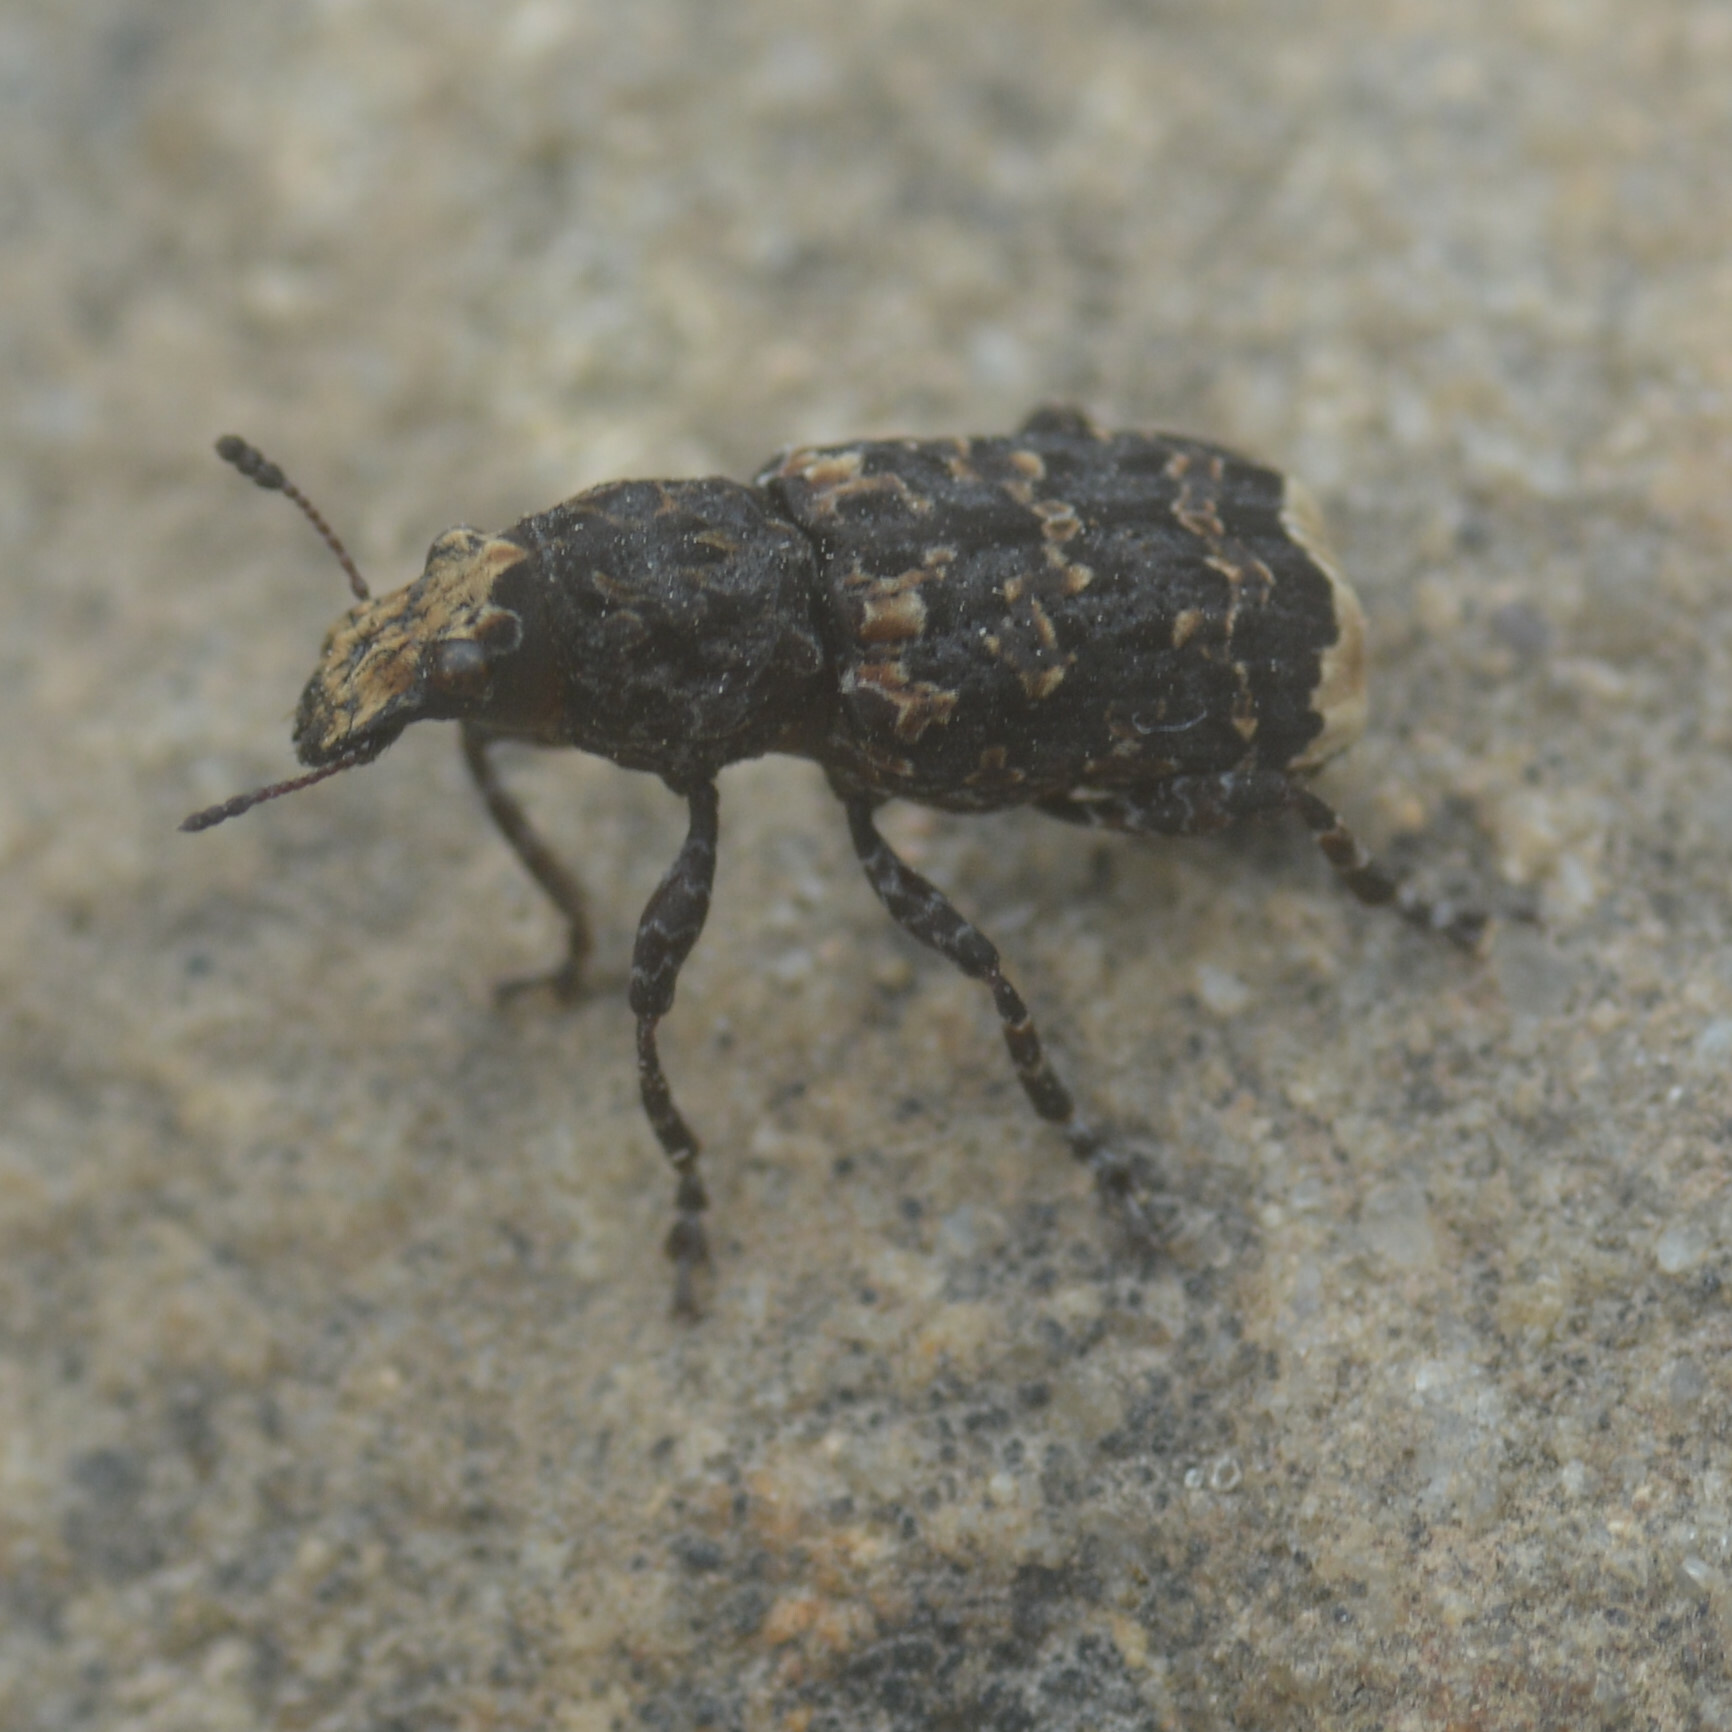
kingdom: Animalia
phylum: Arthropoda
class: Insecta
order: Coleoptera
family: Anthribidae
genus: Platyrhinus
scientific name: Platyrhinus resinosus
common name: Cramp-ball fungus weevil
